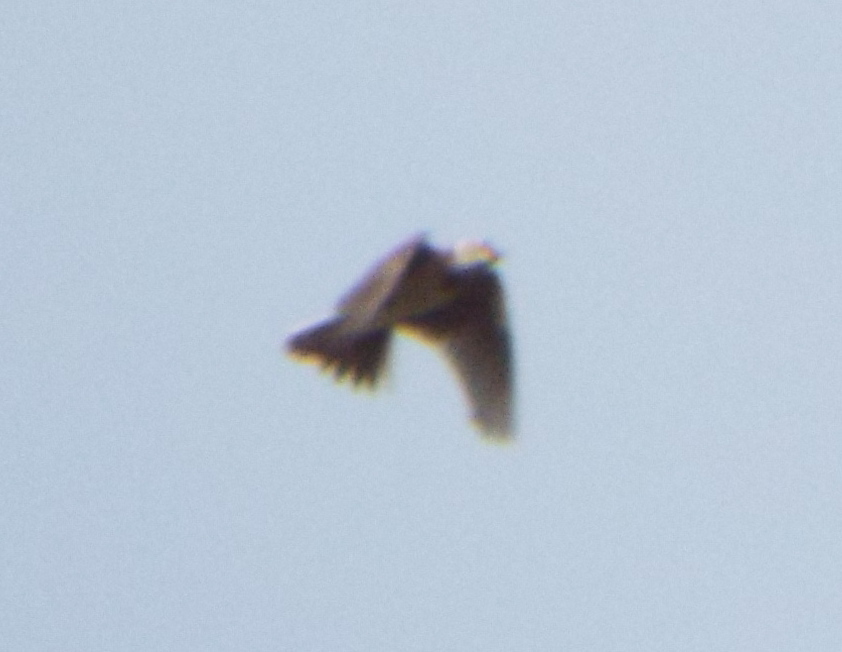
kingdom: Animalia
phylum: Chordata
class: Aves
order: Passeriformes
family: Alaudidae
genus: Alauda
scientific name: Alauda arvensis
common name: Eurasian skylark
